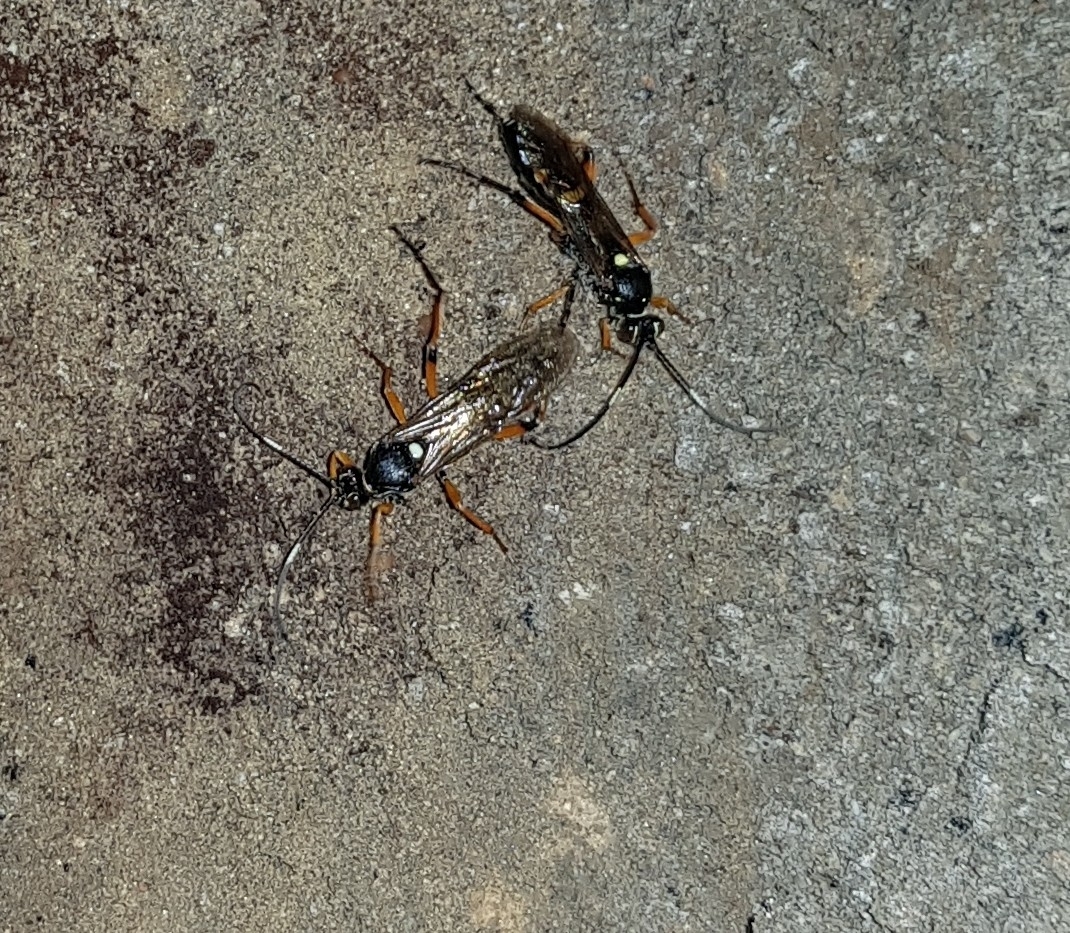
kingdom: Animalia
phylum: Arthropoda
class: Insecta
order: Hymenoptera
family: Ichneumonidae
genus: Diphyus
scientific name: Diphyus quadripunctorius
